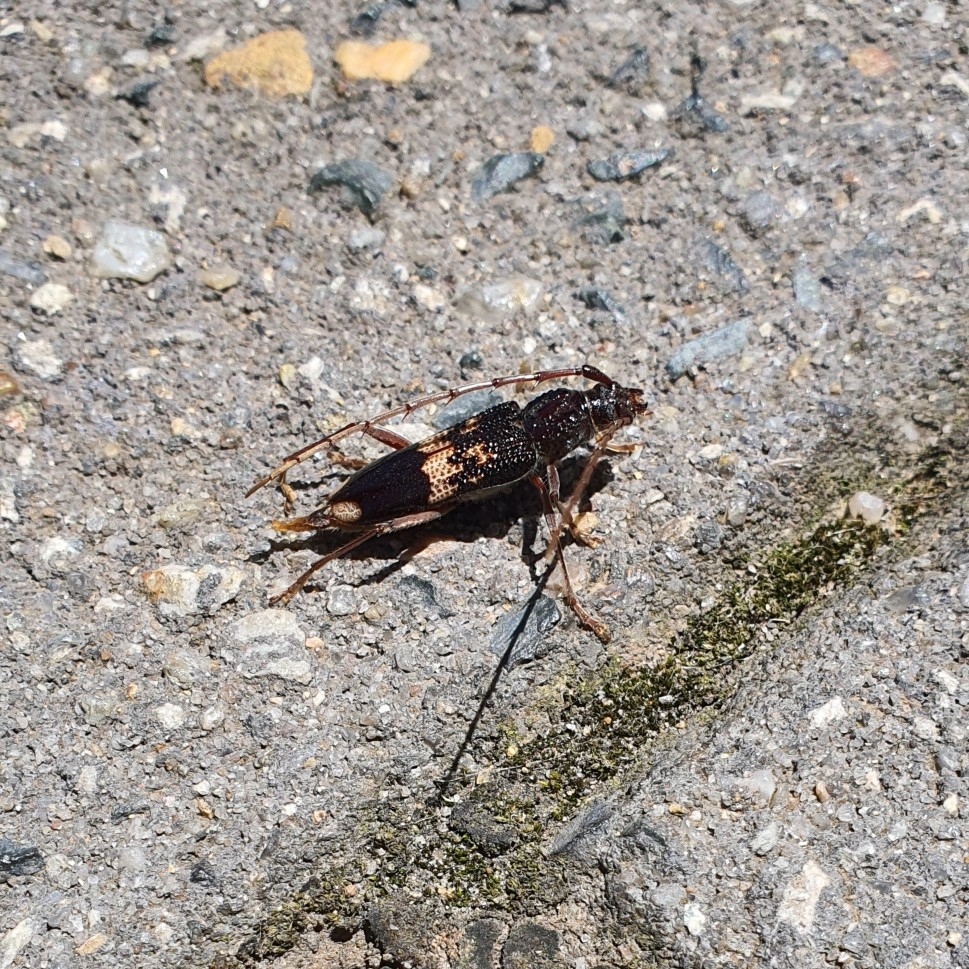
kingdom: Animalia
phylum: Arthropoda
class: Insecta
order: Coleoptera
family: Cerambycidae
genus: Phoracantha
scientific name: Phoracantha semipunctata
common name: Eucalyptus longhorn borer
